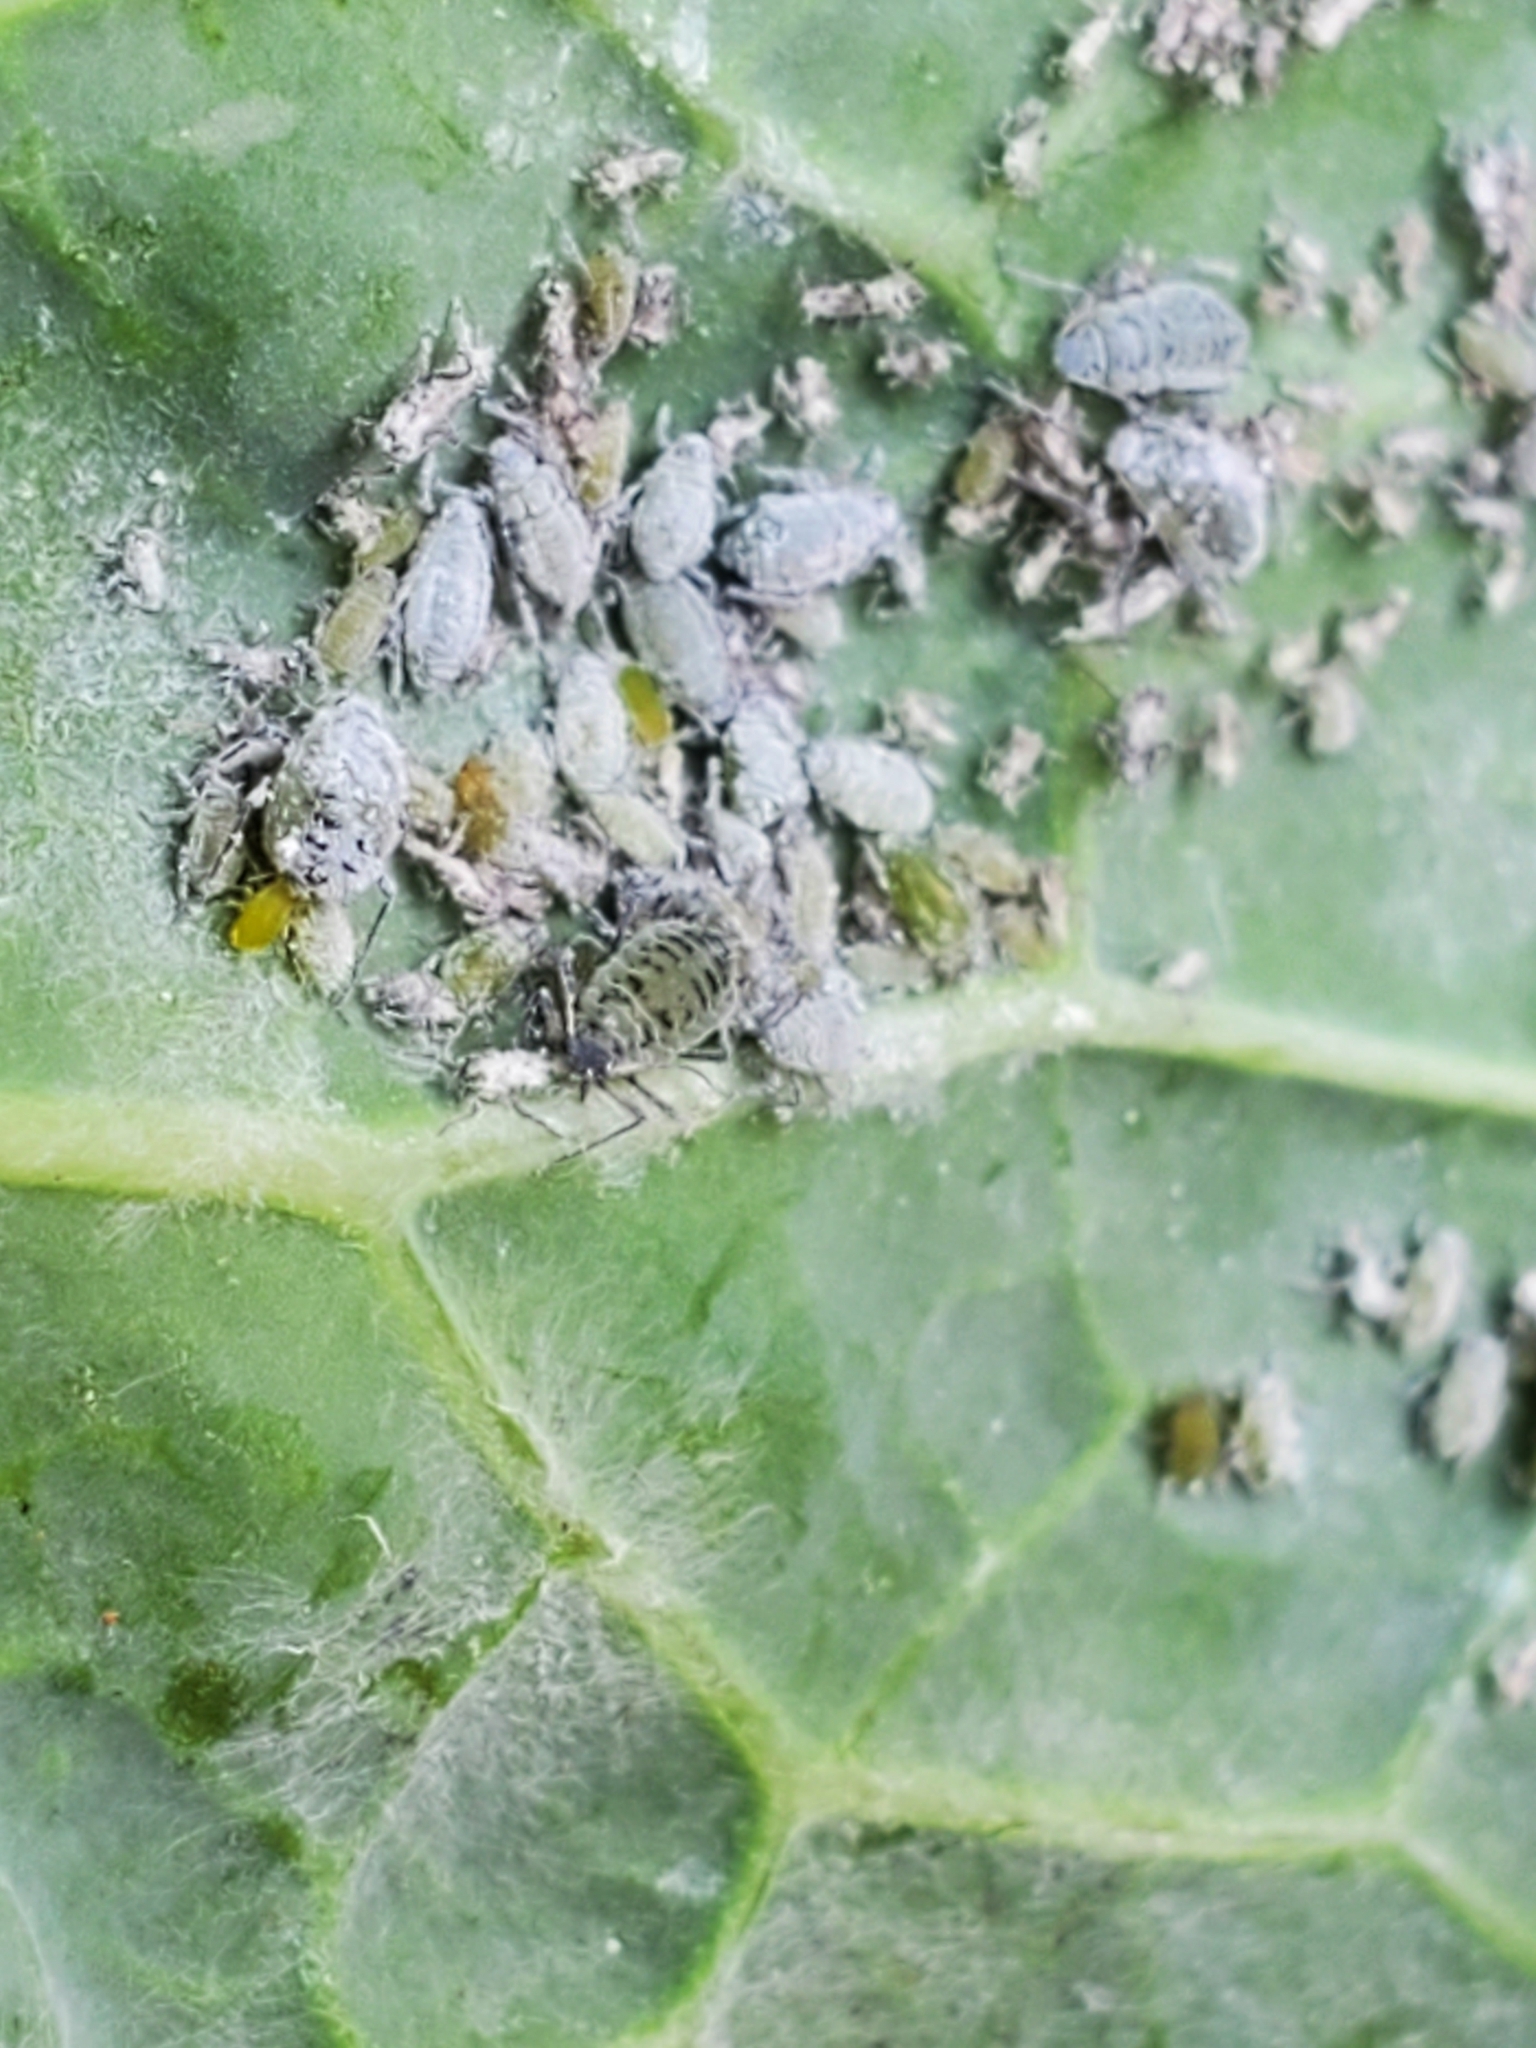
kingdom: Animalia
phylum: Arthropoda
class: Insecta
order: Hemiptera
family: Aphididae
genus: Brevicoryne
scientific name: Brevicoryne brassicae
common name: Cabbage aphid
